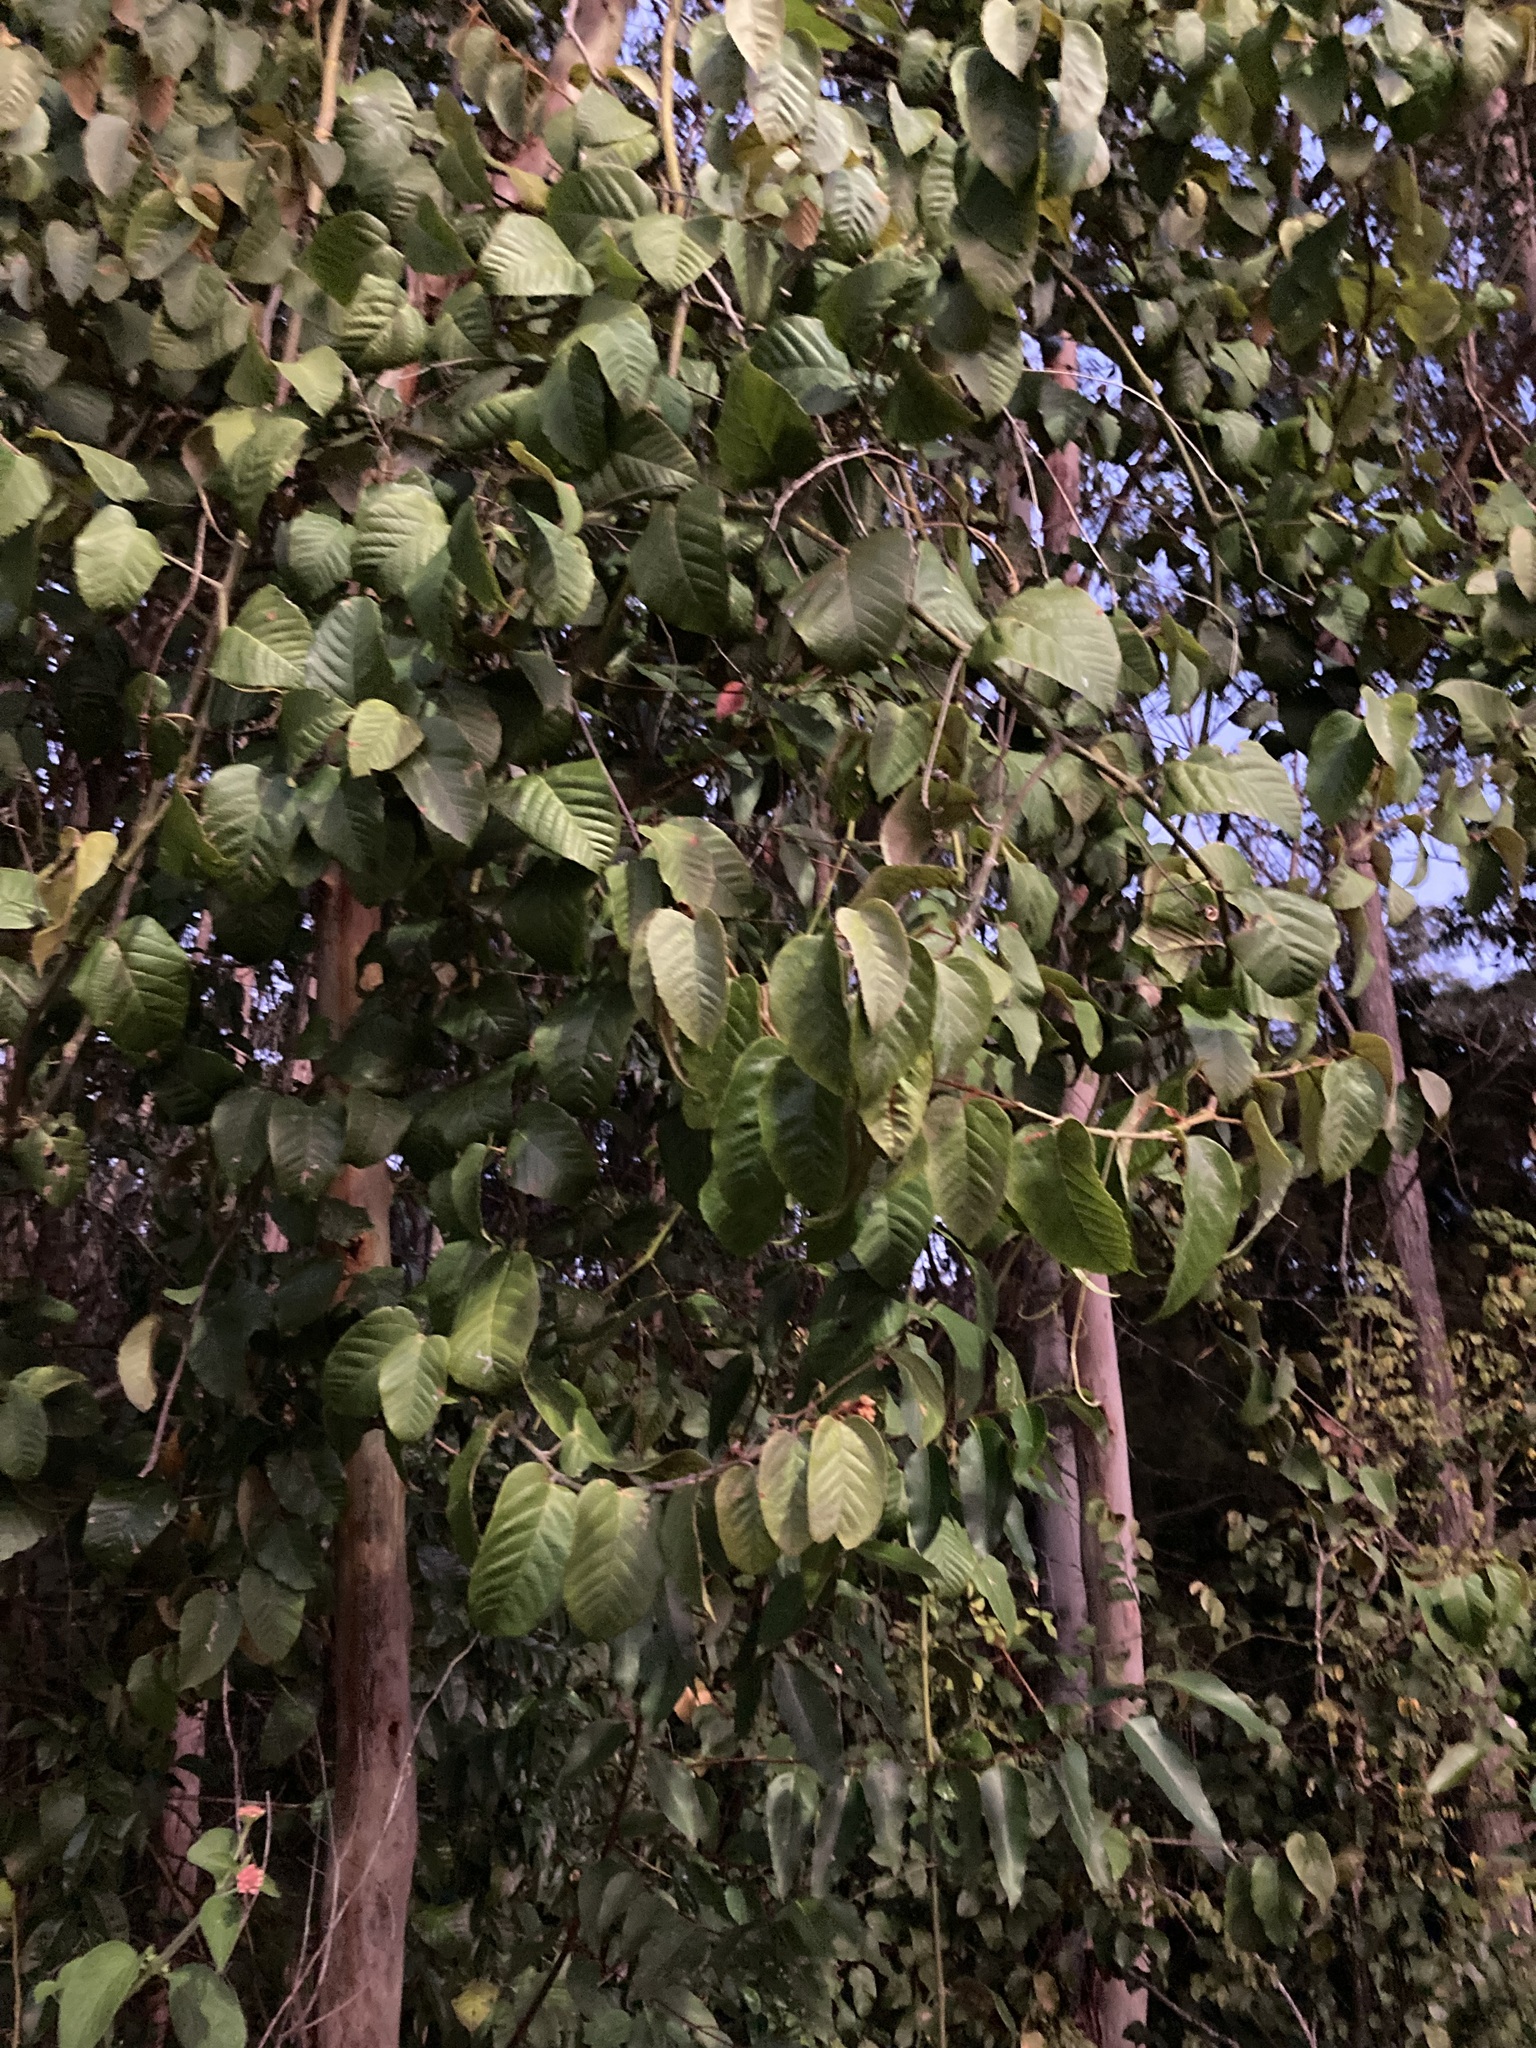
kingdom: Plantae
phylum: Tracheophyta
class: Magnoliopsida
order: Vitales
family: Vitaceae
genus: Cissus
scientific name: Cissus antarctica
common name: Kangaroo vine
